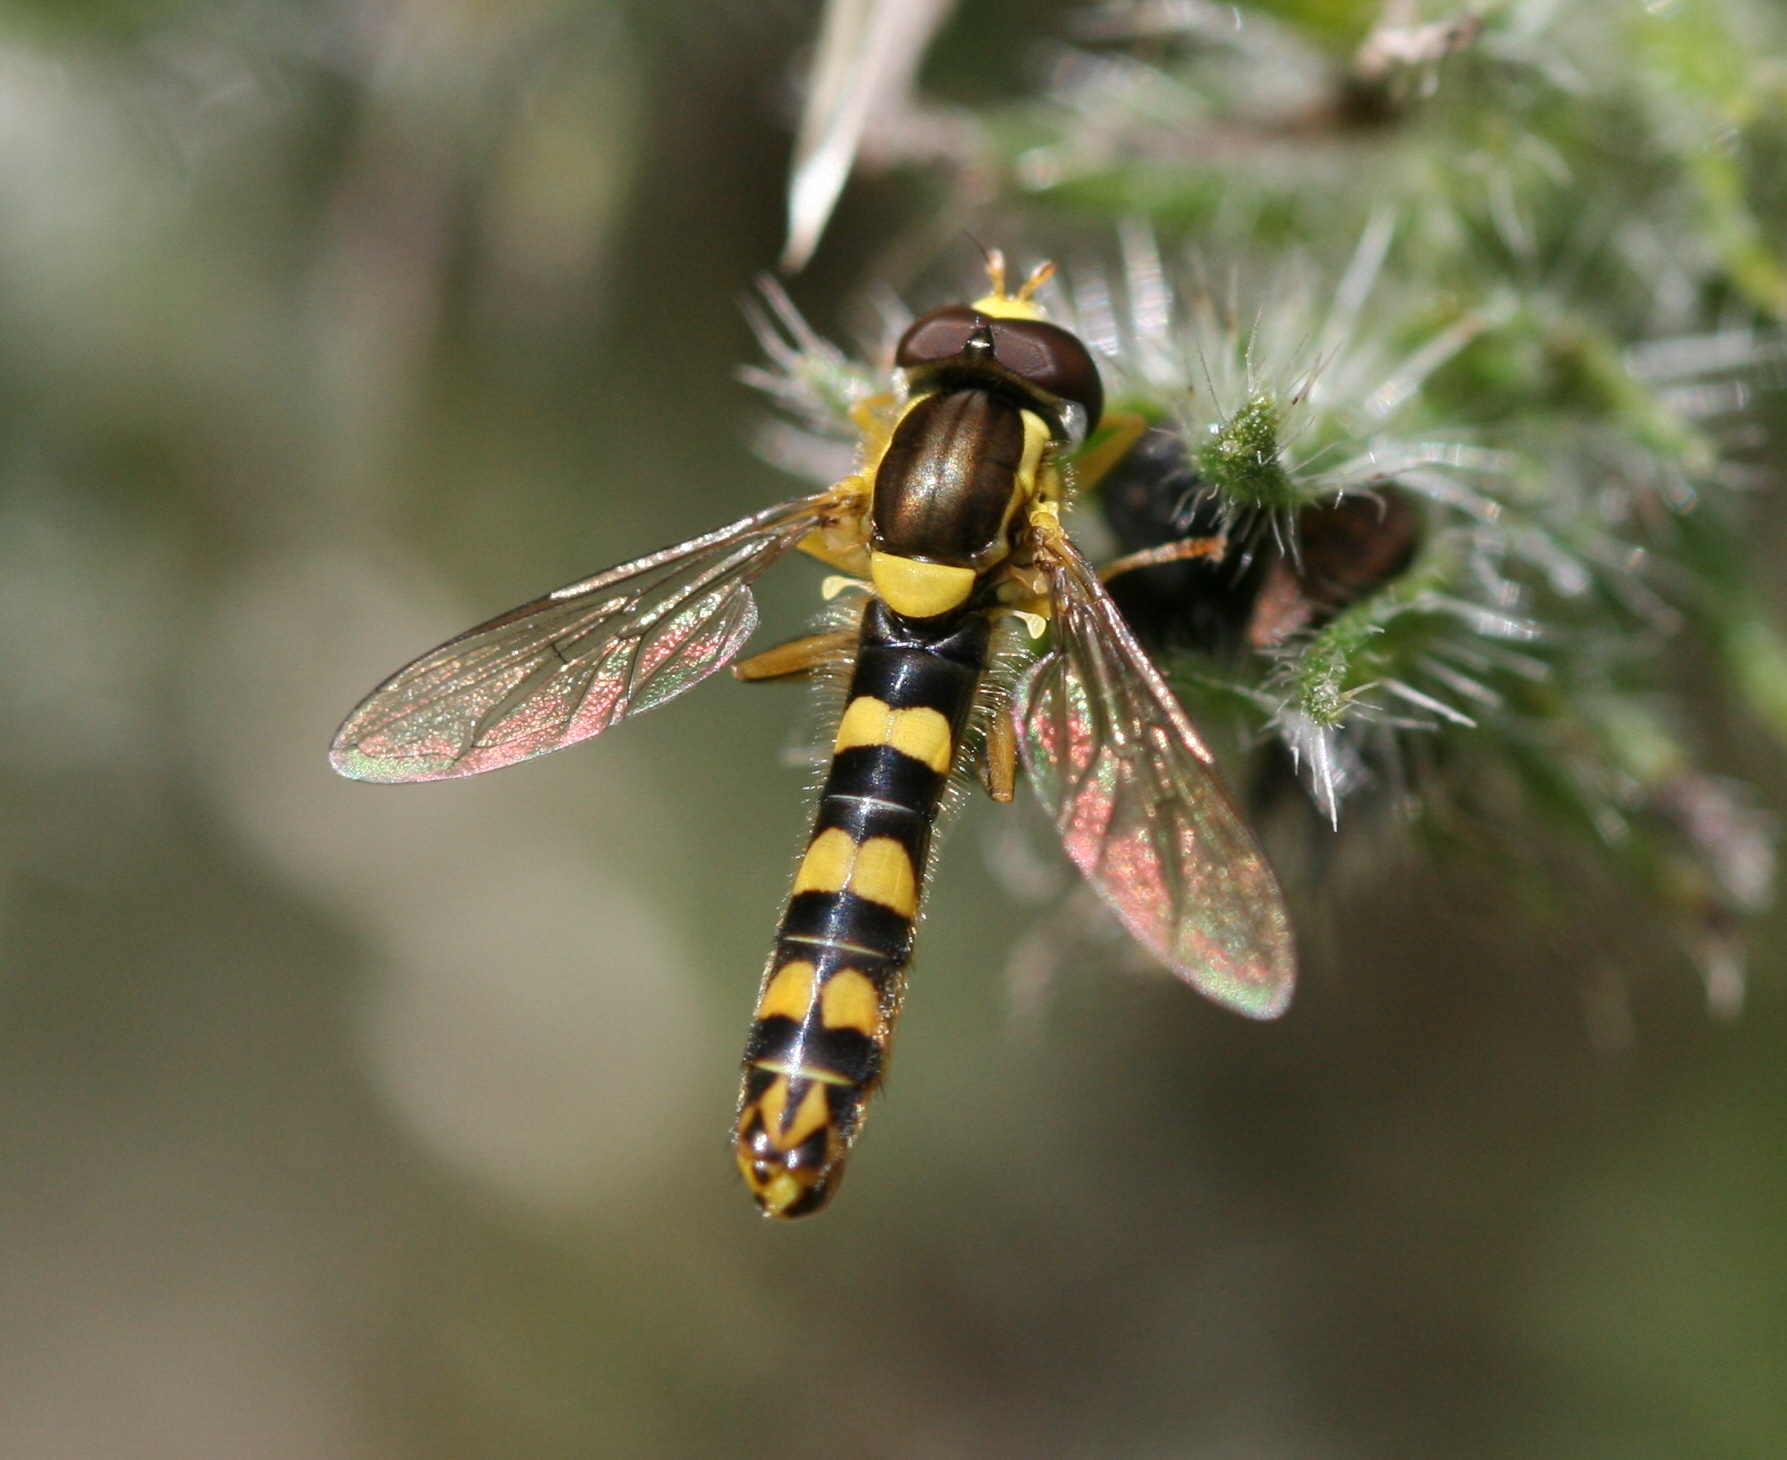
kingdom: Animalia
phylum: Arthropoda
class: Insecta
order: Diptera
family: Syrphidae
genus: Sphaerophoria
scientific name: Sphaerophoria scripta
